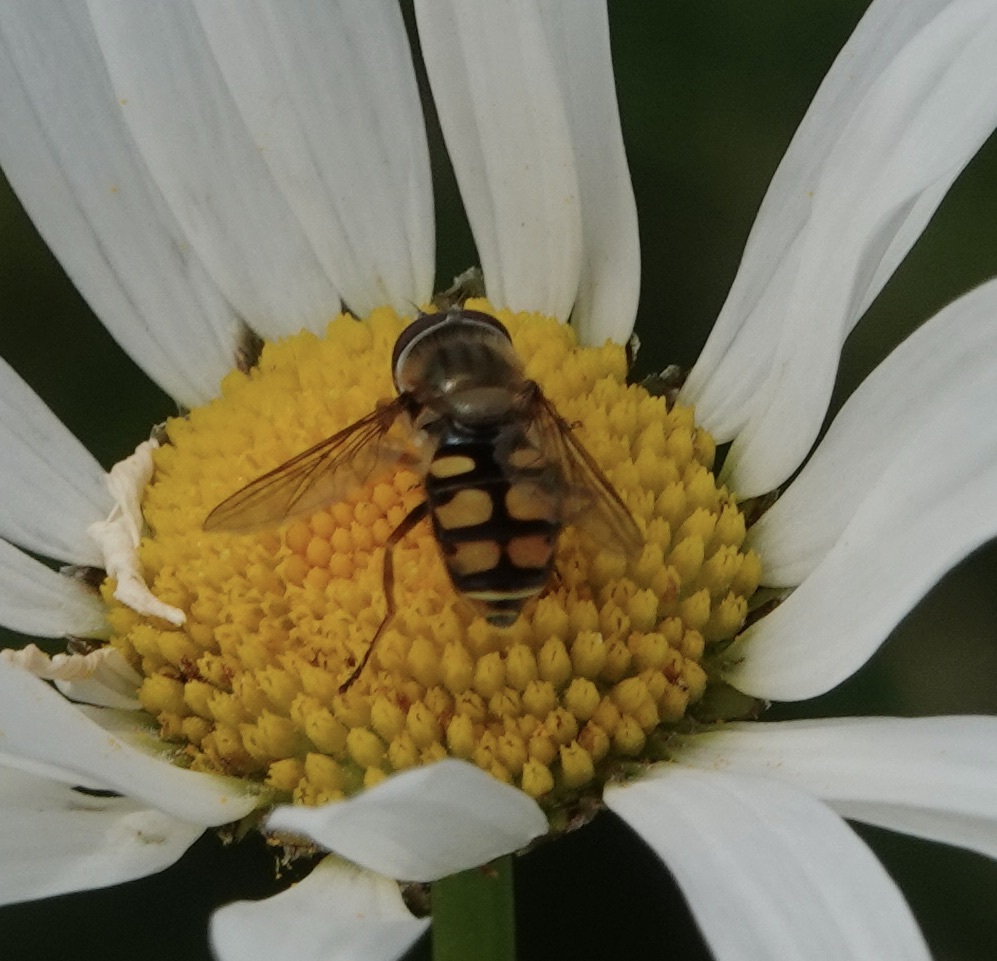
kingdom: Animalia
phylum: Arthropoda
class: Insecta
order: Diptera
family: Syrphidae
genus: Eupeodes
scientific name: Eupeodes corollae
